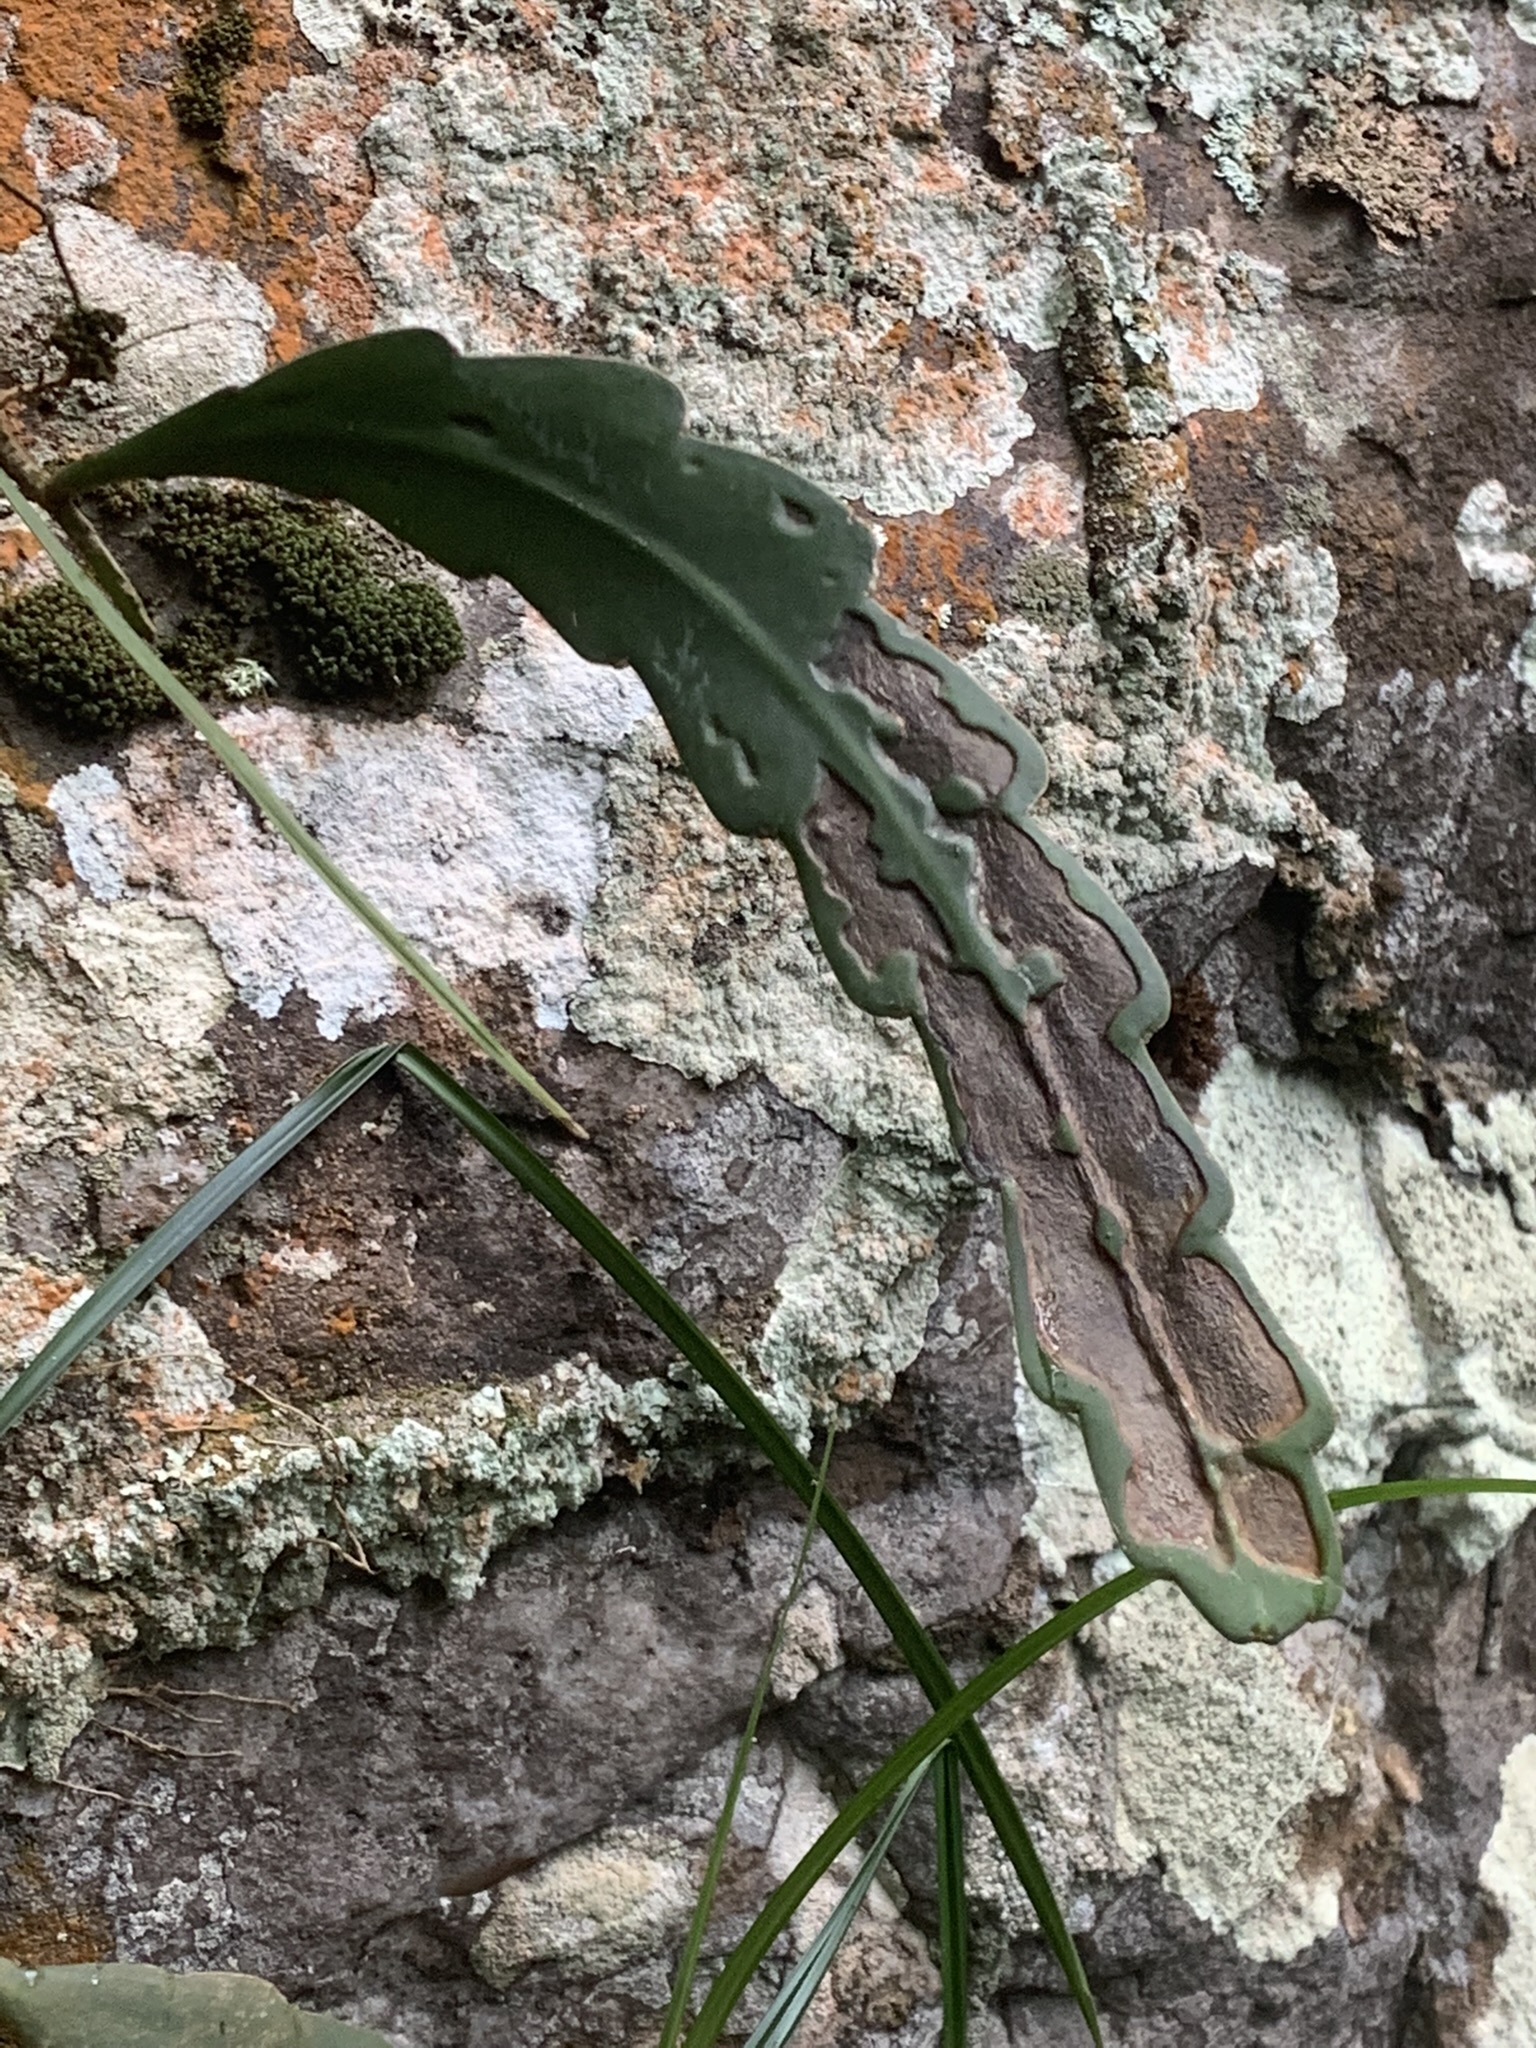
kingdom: Plantae
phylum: Tracheophyta
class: Magnoliopsida
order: Caryophyllales
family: Cactaceae
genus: Epiphyllum
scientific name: Epiphyllum phyllanthus
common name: Climbing cactus
